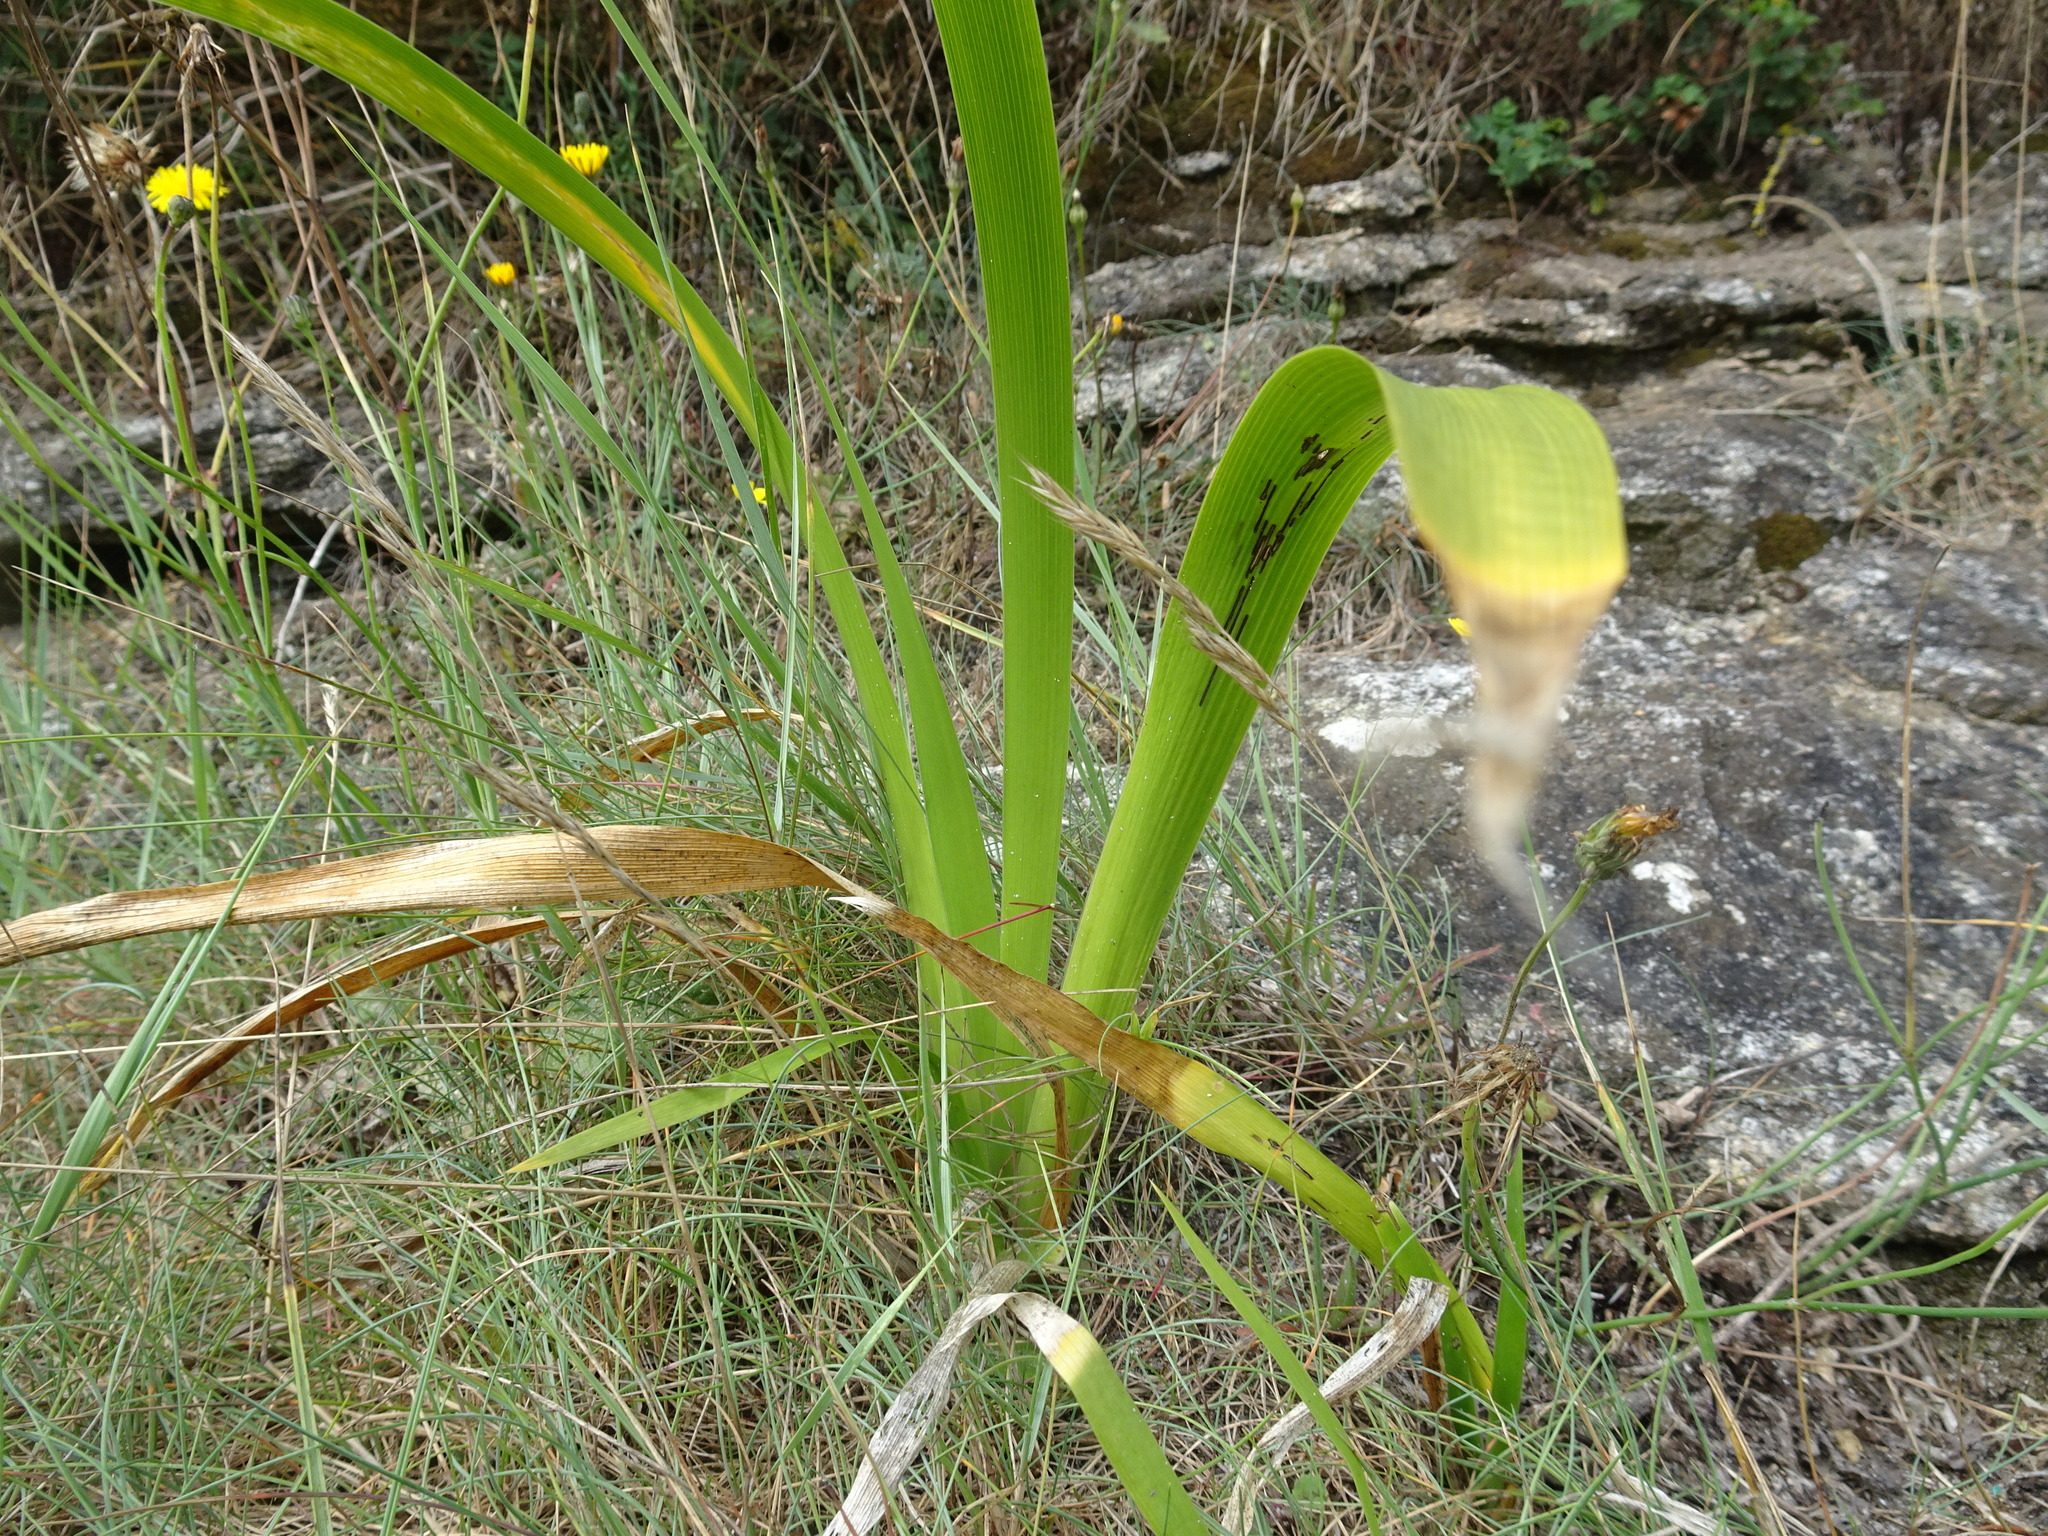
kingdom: Plantae
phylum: Tracheophyta
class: Liliopsida
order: Asparagales
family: Iridaceae
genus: Iris
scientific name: Iris foetidissima
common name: Stinking iris
